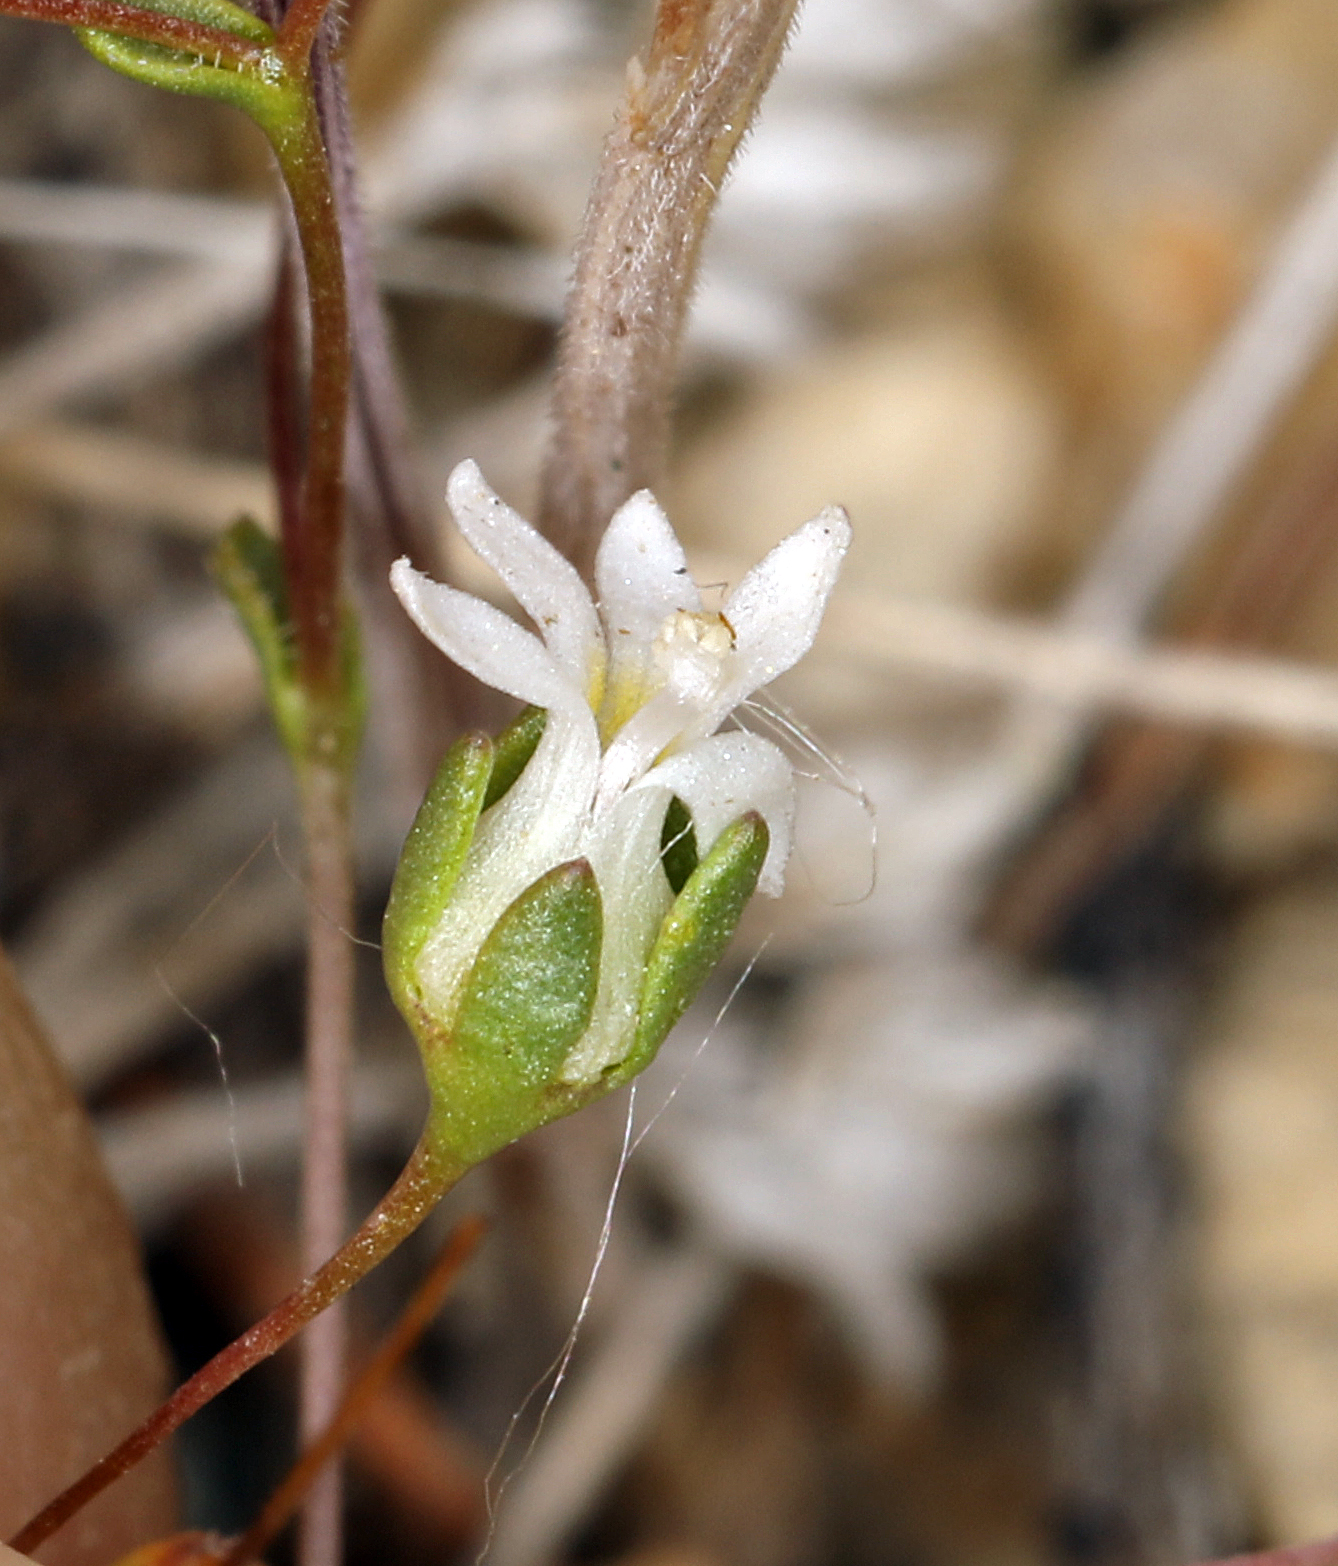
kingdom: Plantae
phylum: Tracheophyta
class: Magnoliopsida
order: Asterales
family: Campanulaceae
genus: Nemacladus
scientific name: Nemacladus sigmoideus
